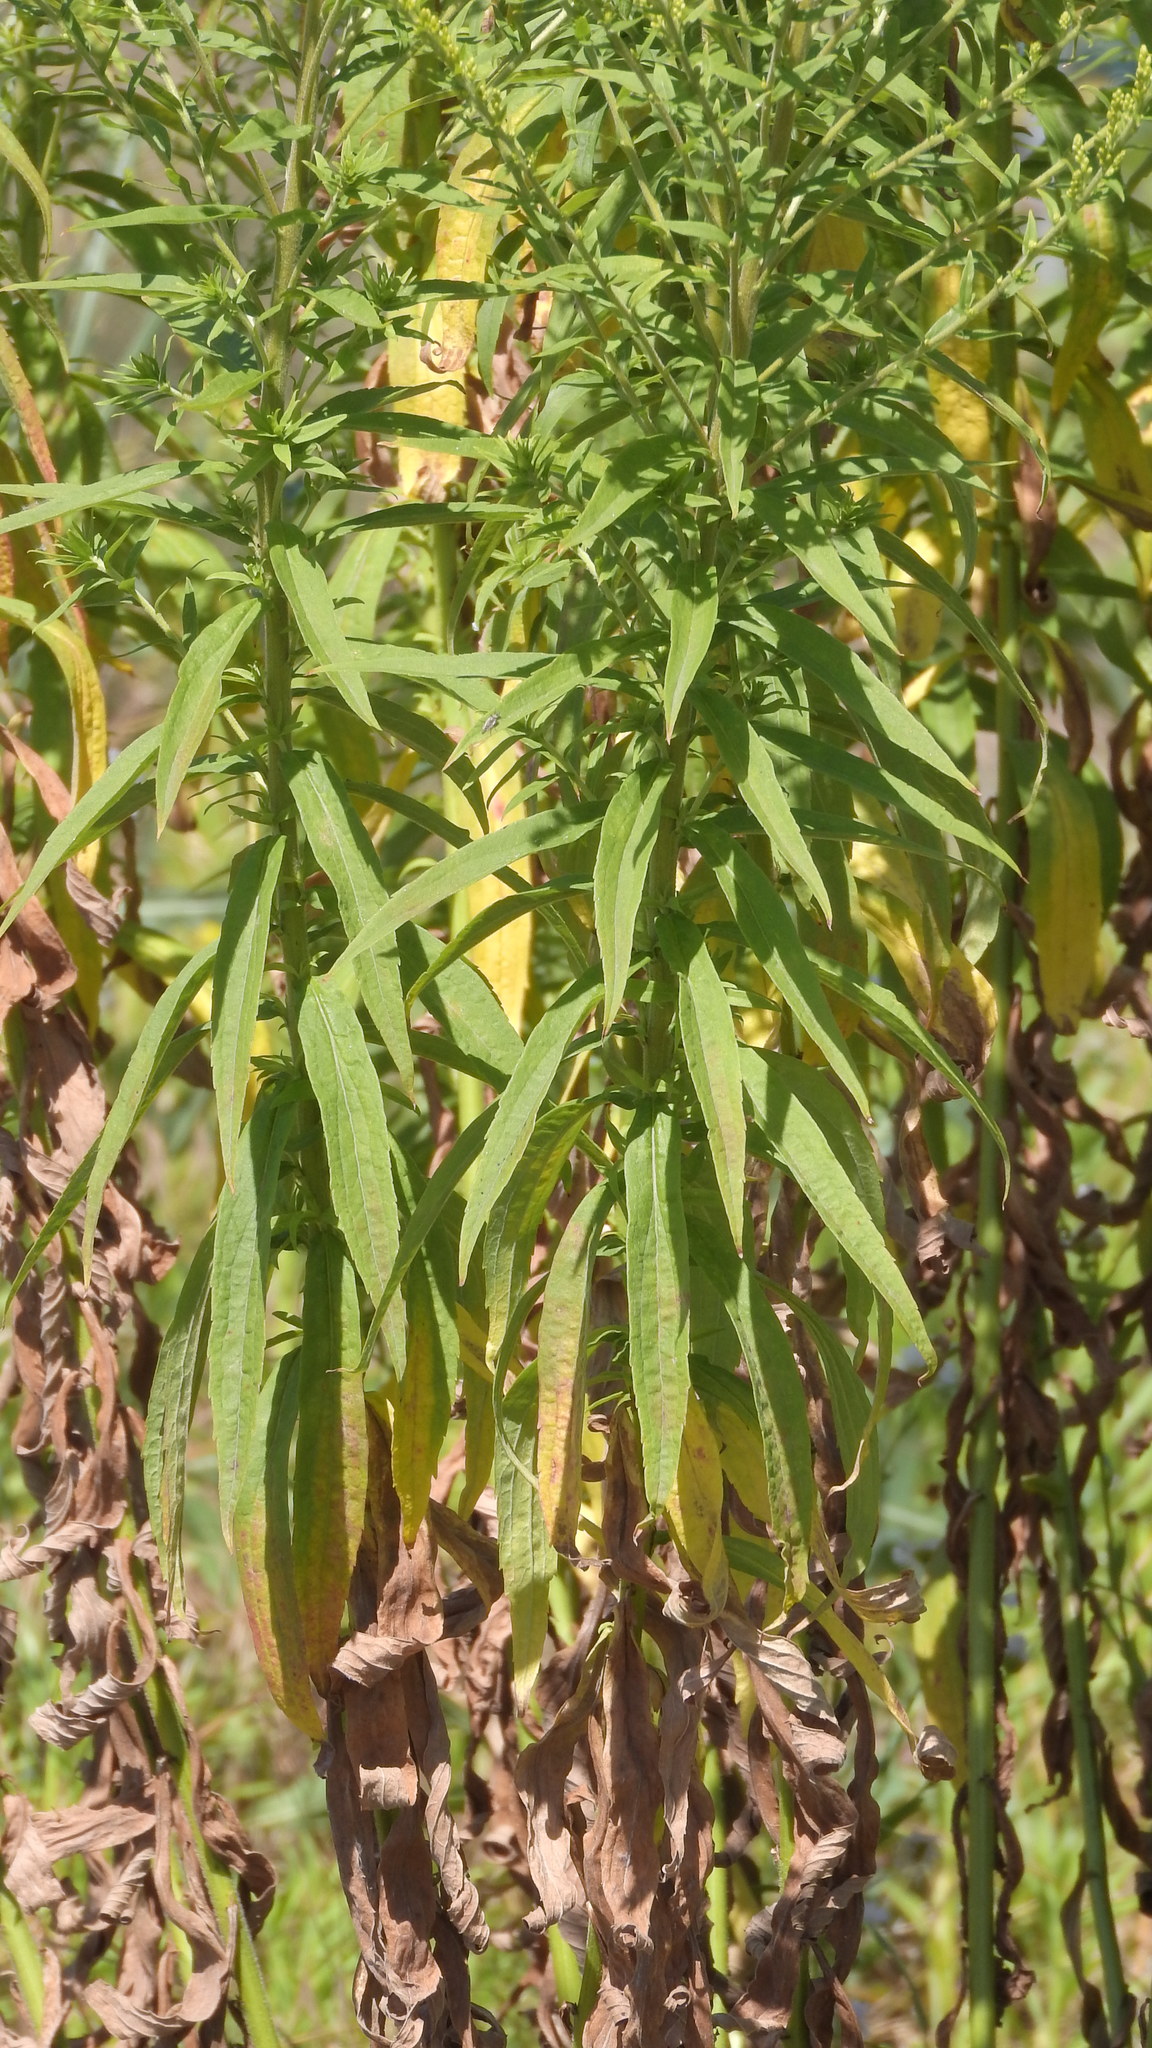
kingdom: Plantae
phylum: Tracheophyta
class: Magnoliopsida
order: Asterales
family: Asteraceae
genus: Solidago
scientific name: Solidago canadensis
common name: Canada goldenrod
